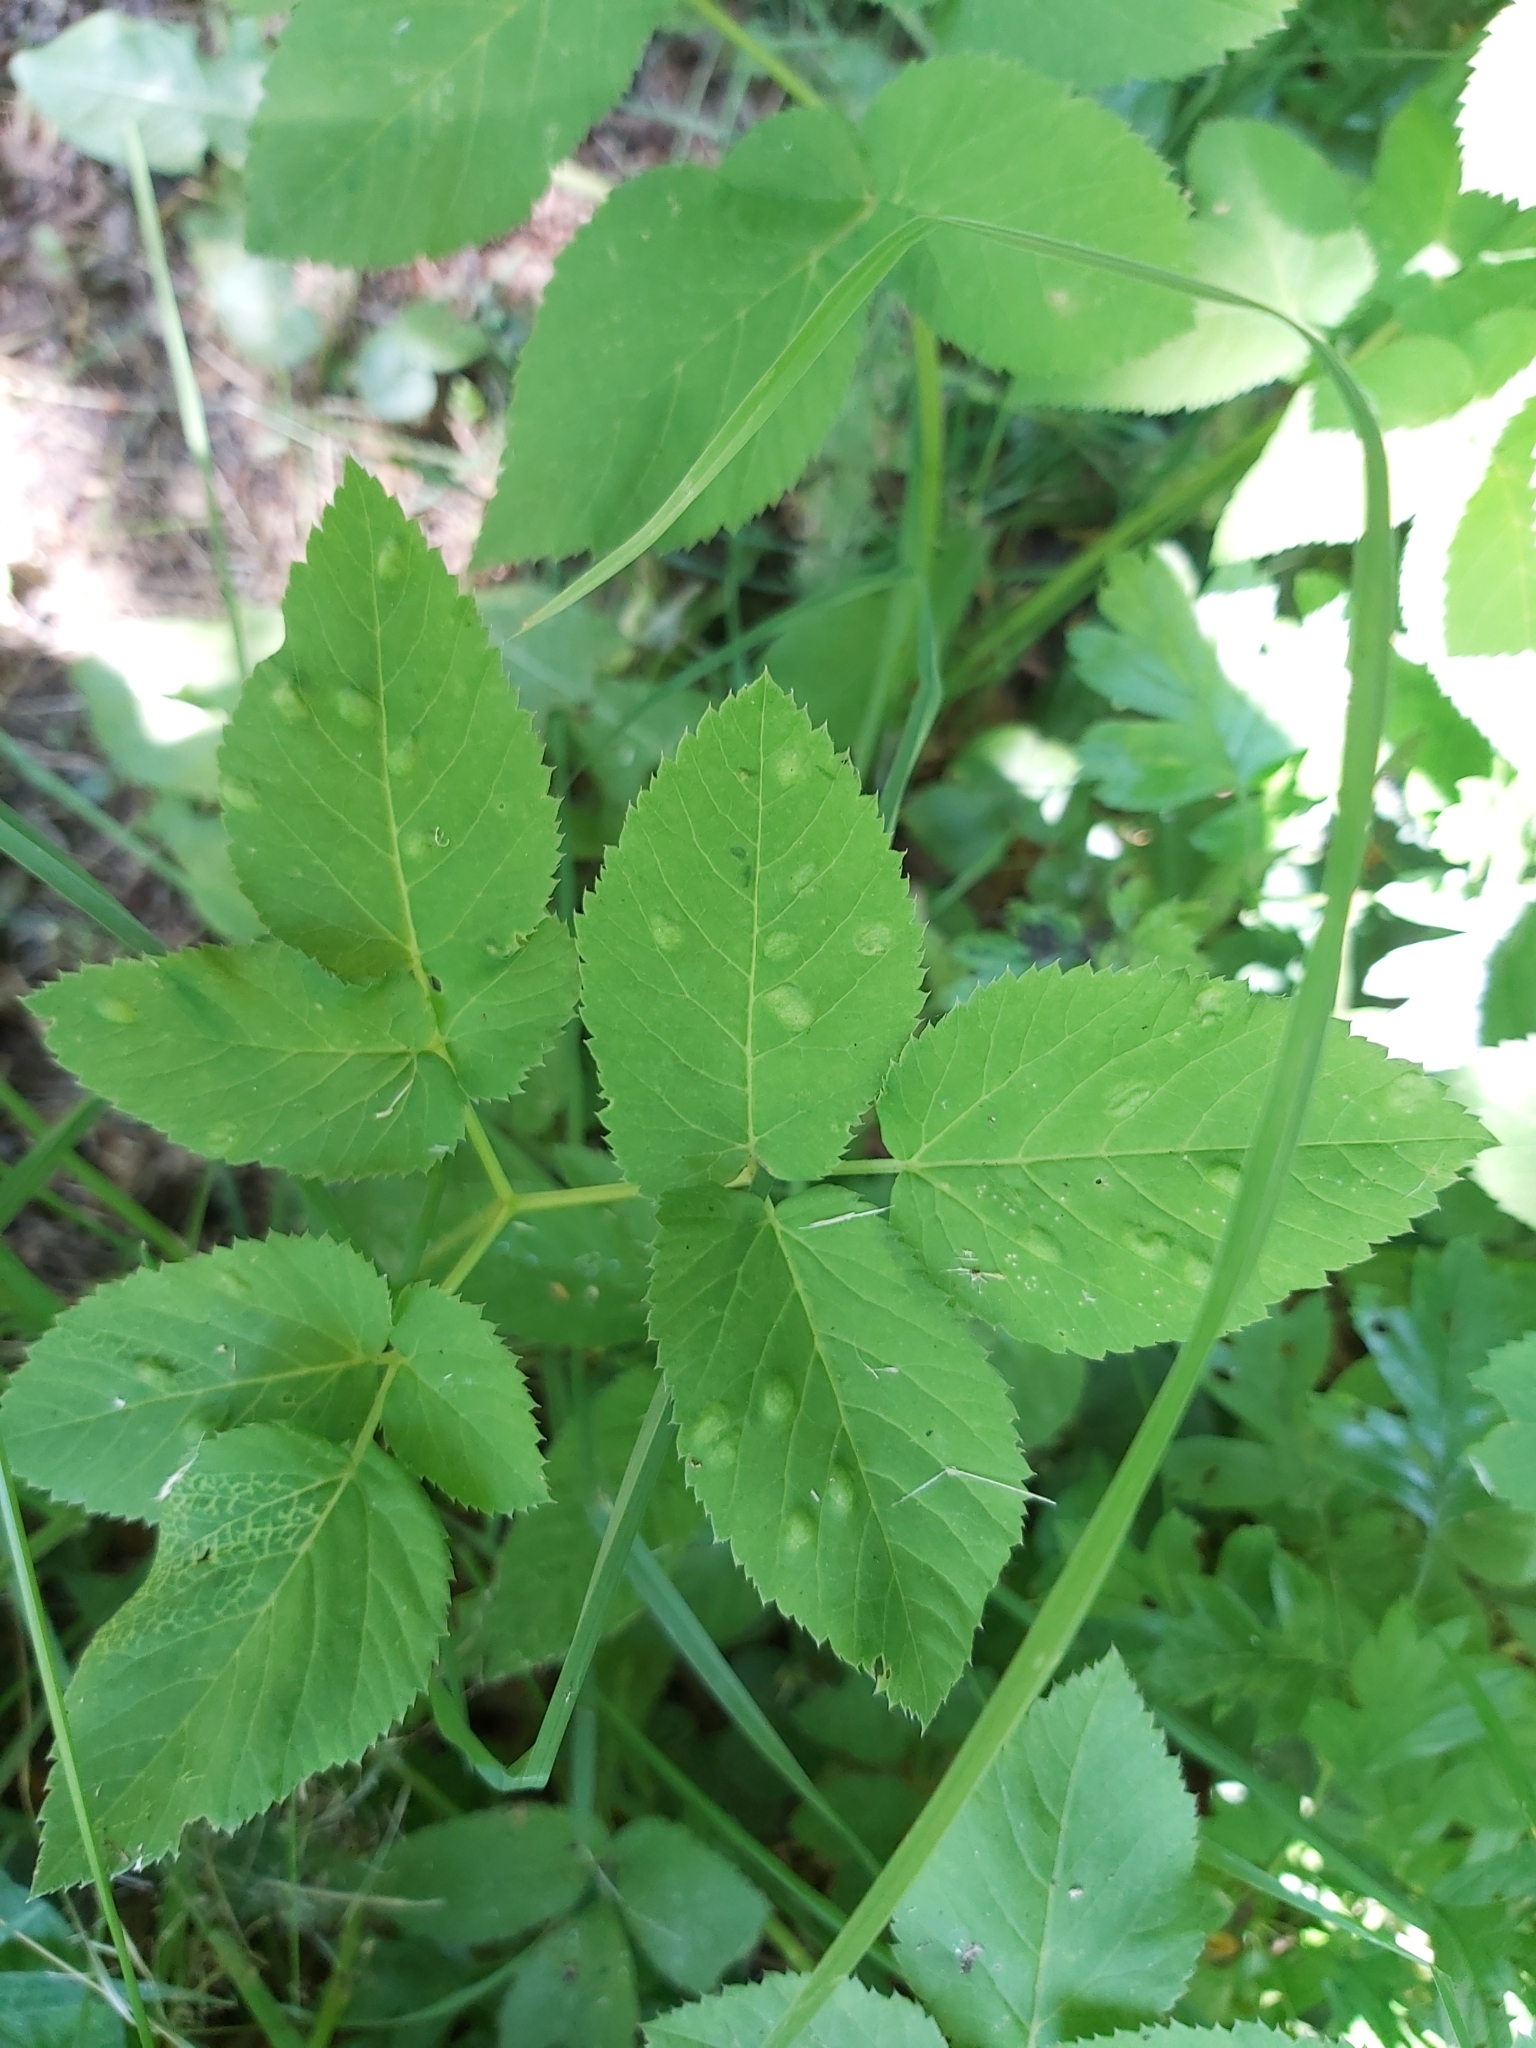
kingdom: Animalia
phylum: Arthropoda
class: Insecta
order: Hemiptera
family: Triozidae
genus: Trioza
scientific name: Trioza flavipennis
